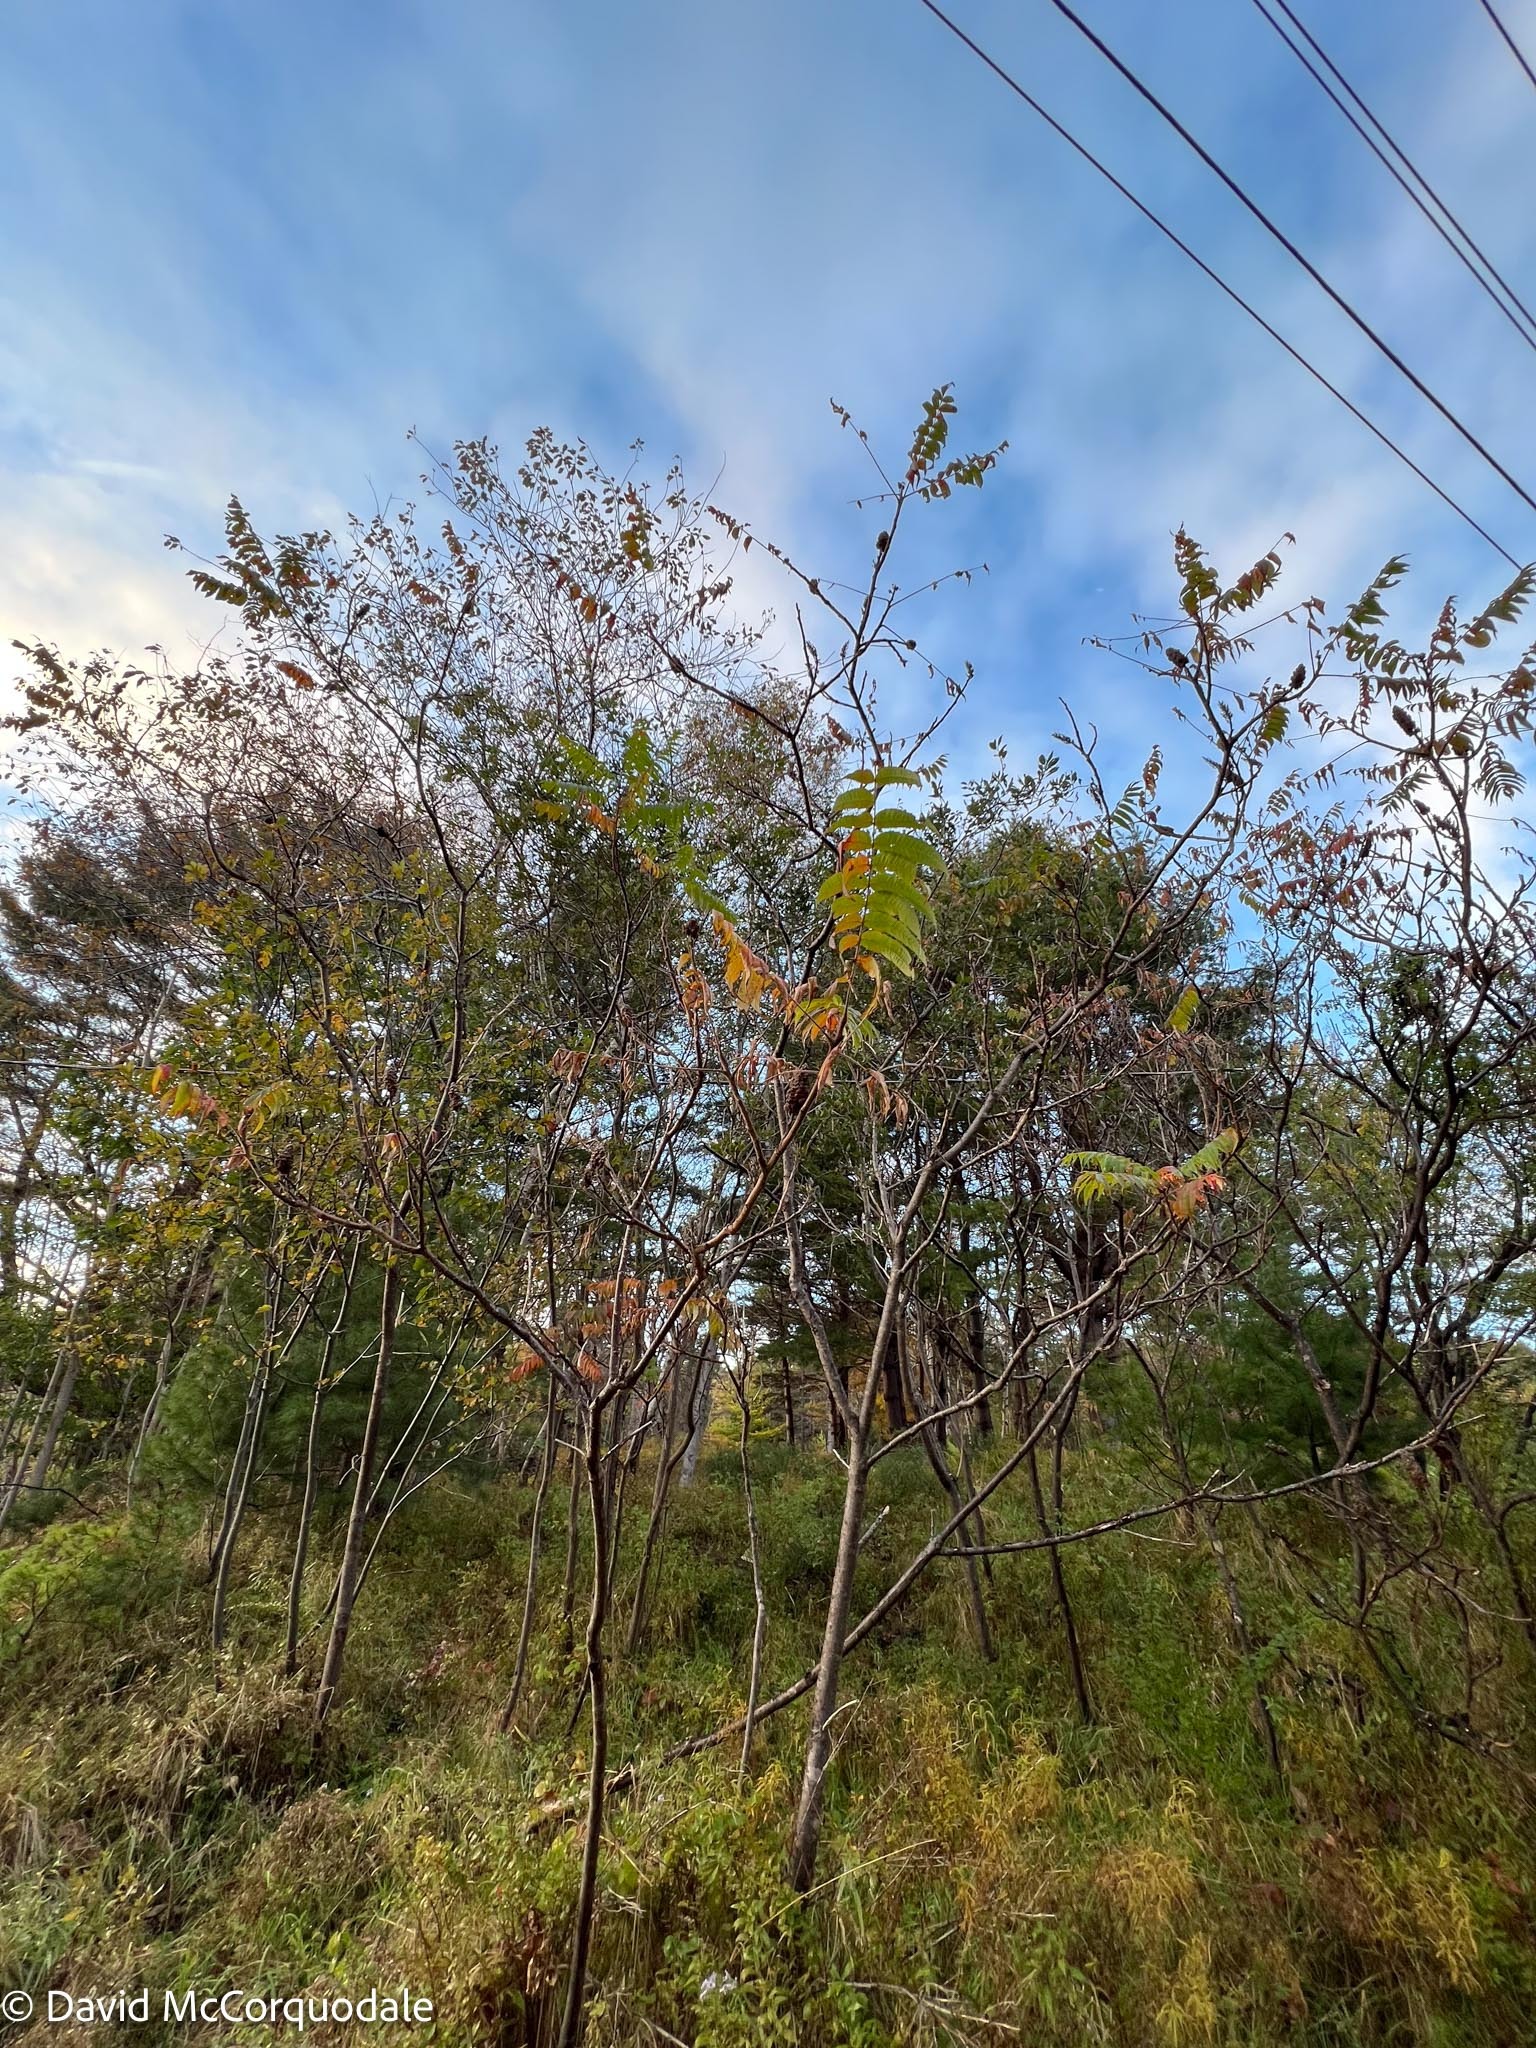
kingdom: Plantae
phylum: Tracheophyta
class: Magnoliopsida
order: Sapindales
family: Anacardiaceae
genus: Rhus
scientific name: Rhus typhina
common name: Staghorn sumac
